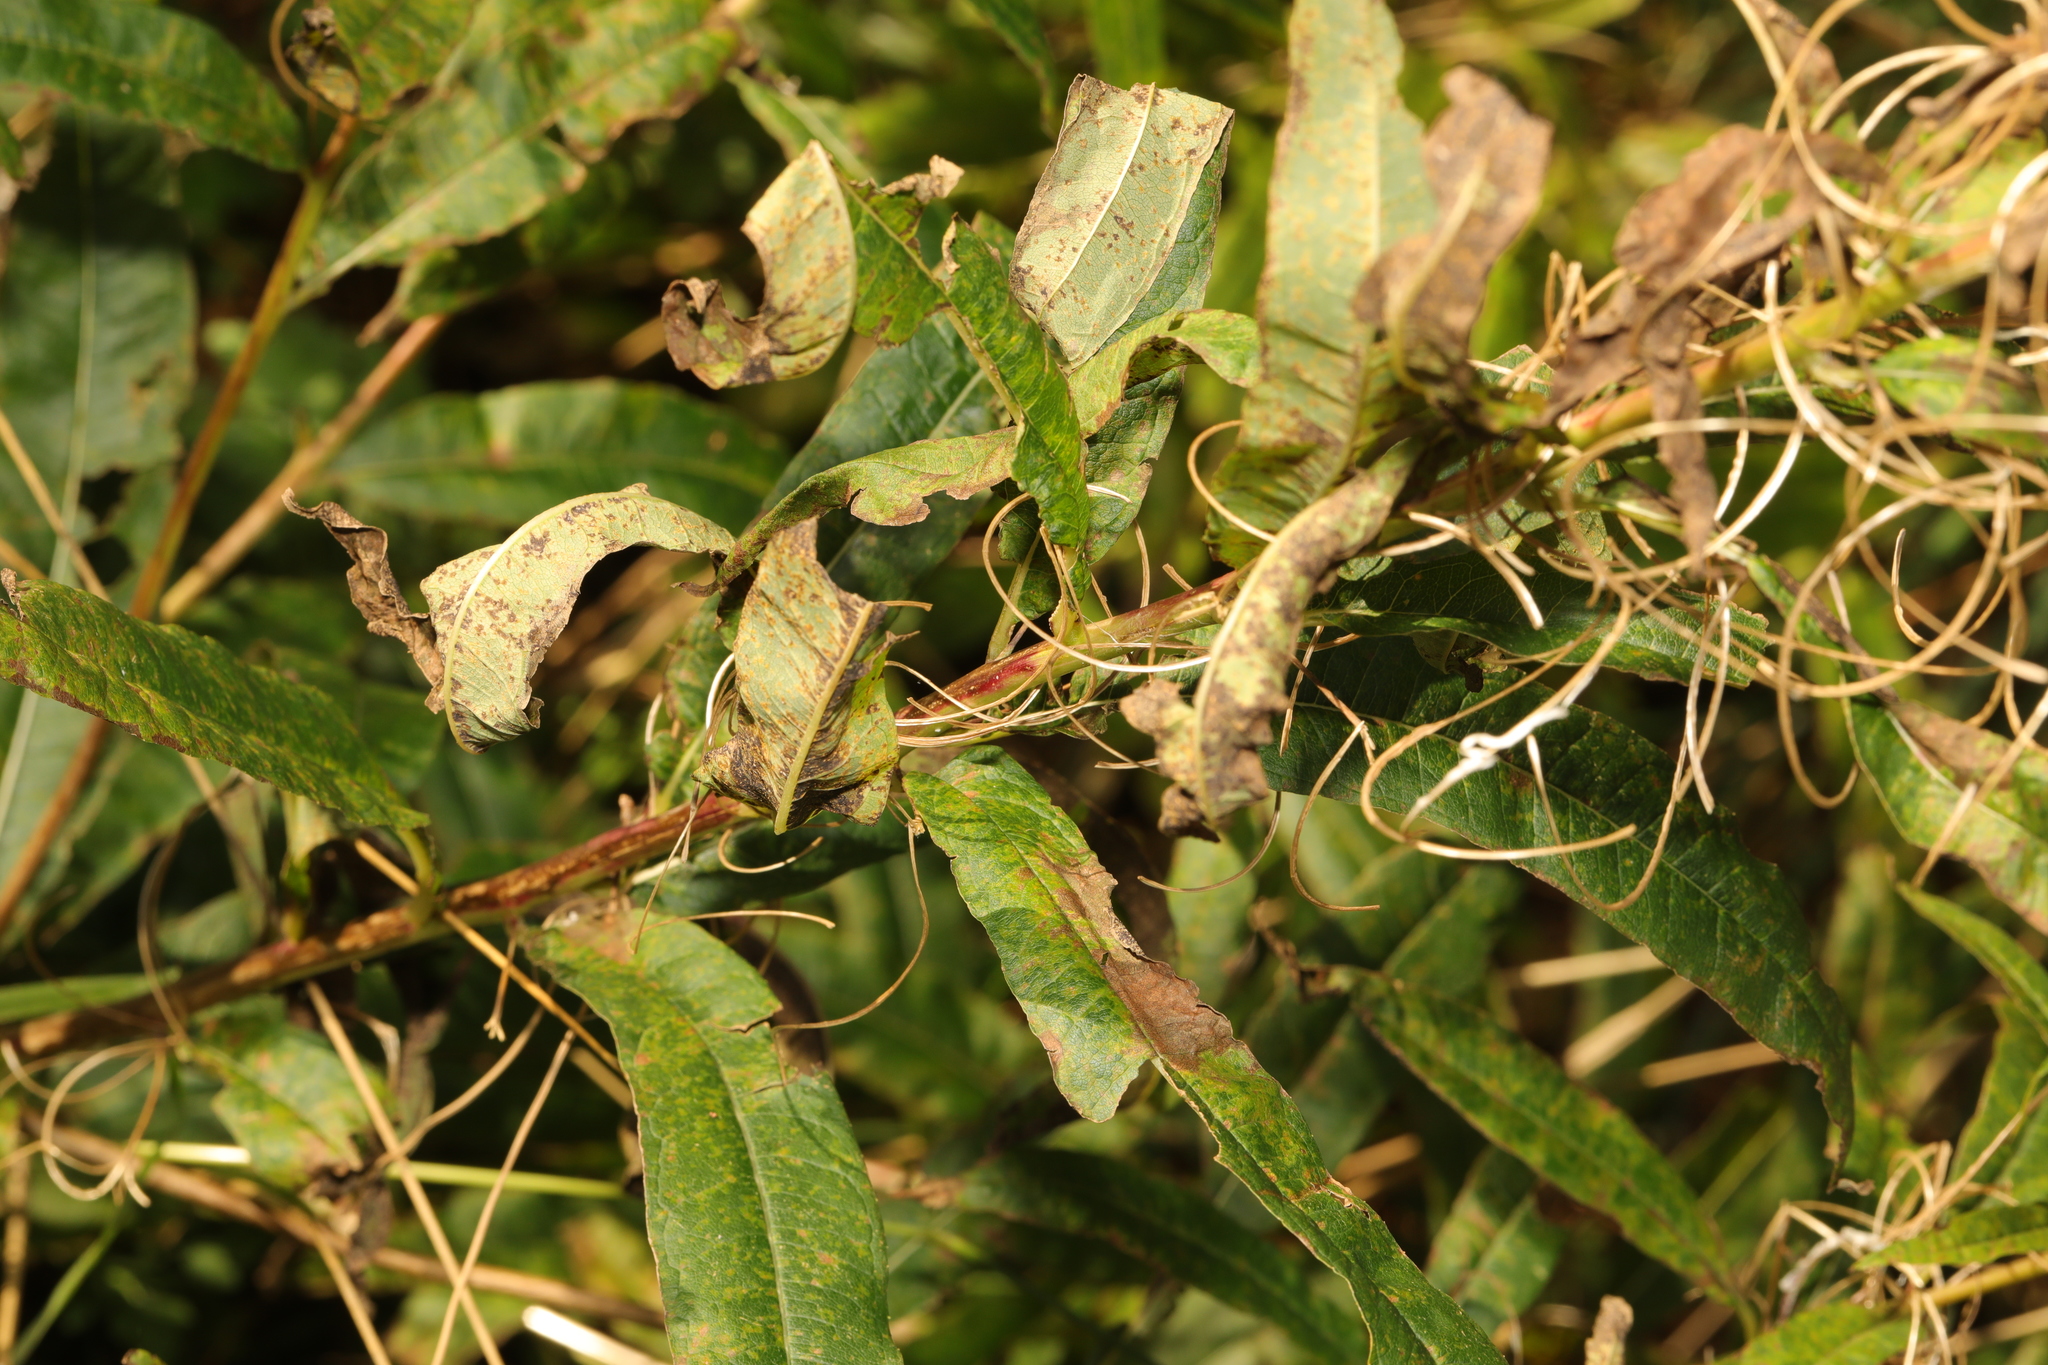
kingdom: Plantae
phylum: Tracheophyta
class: Magnoliopsida
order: Myrtales
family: Onagraceae
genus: Chamaenerion
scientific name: Chamaenerion angustifolium
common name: Fireweed
